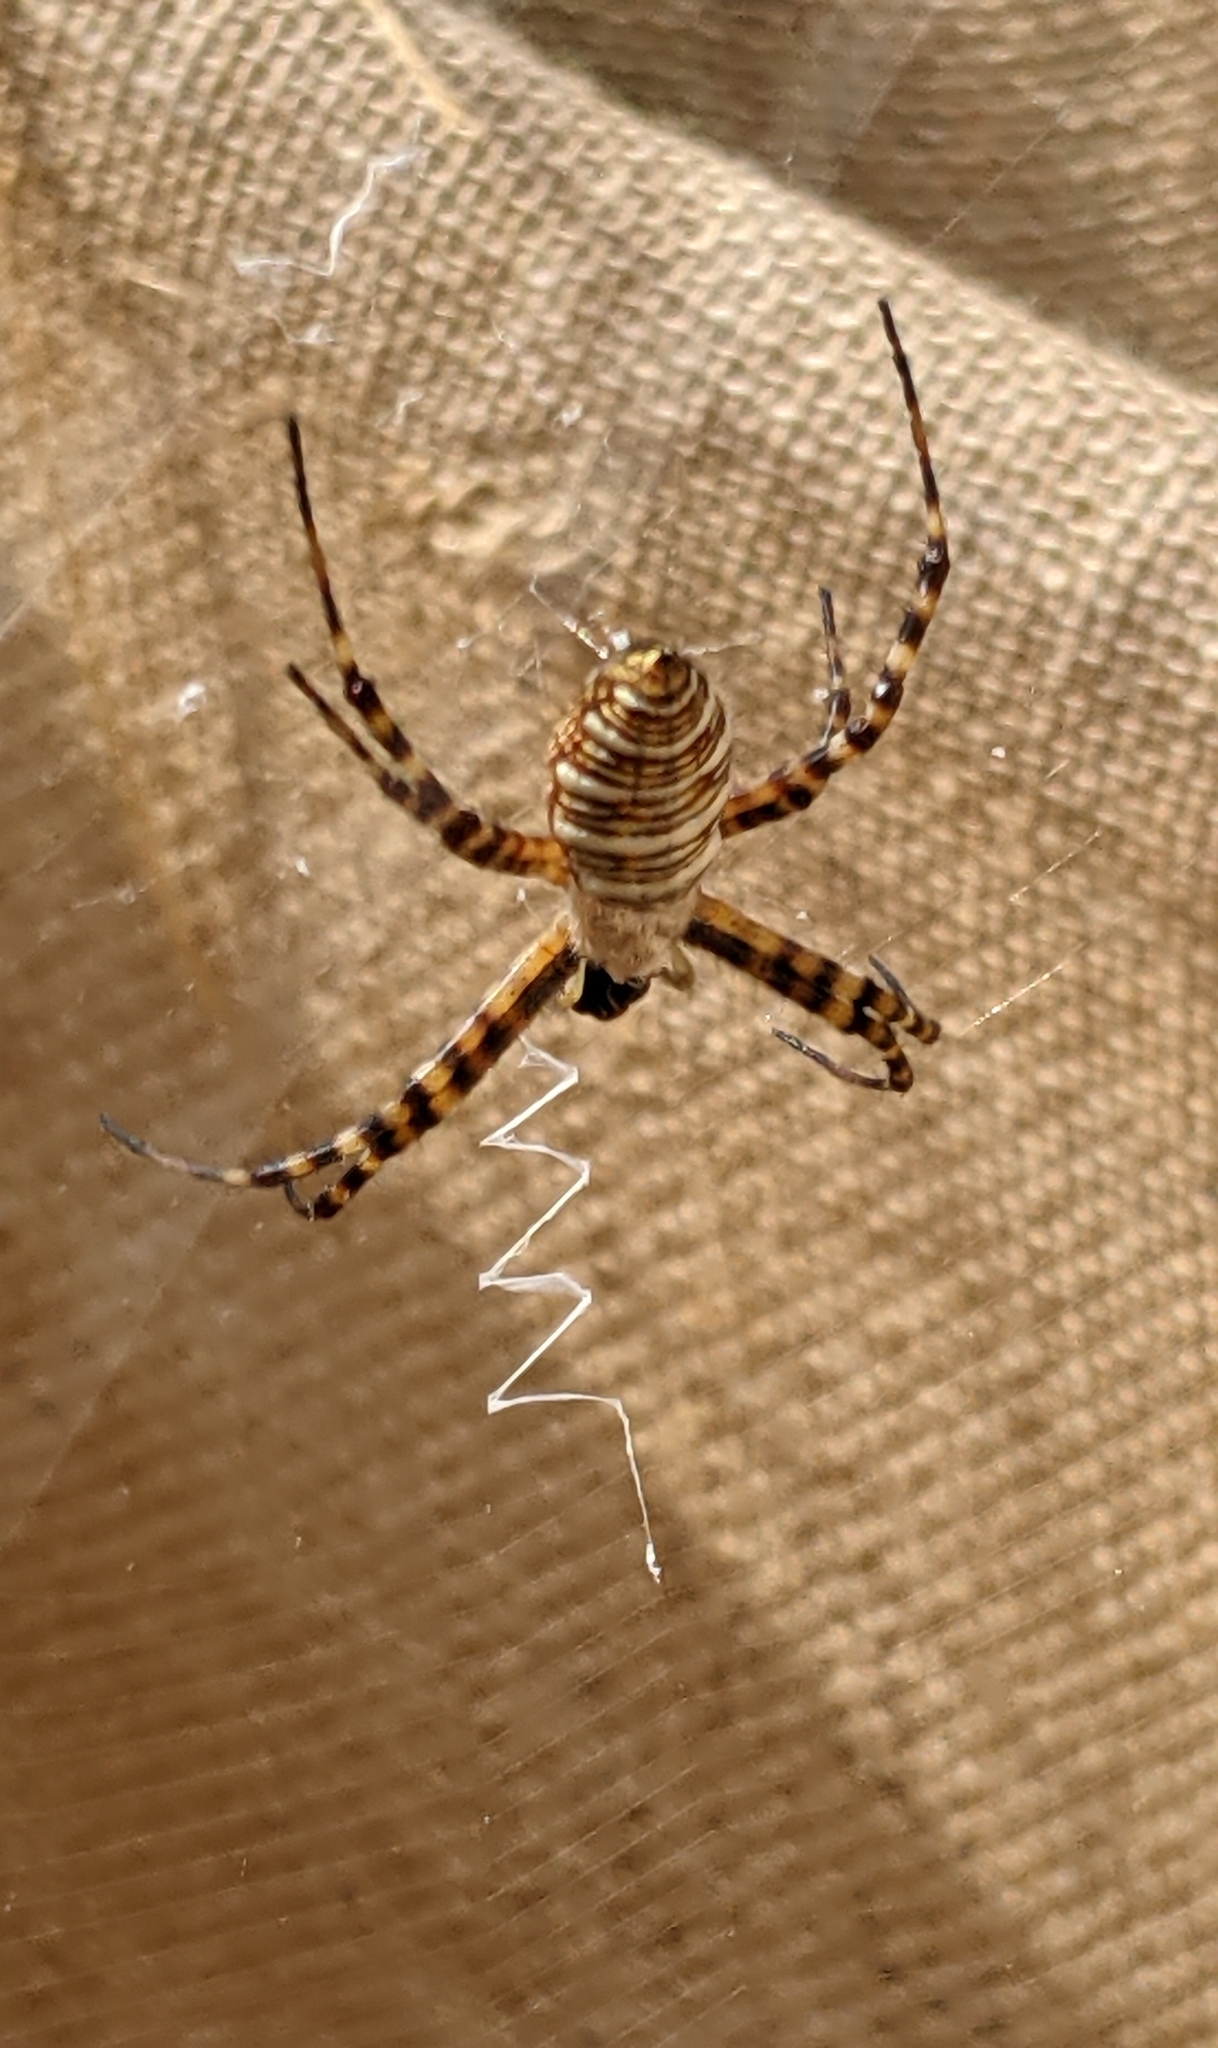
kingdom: Animalia
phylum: Arthropoda
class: Arachnida
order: Araneae
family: Araneidae
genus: Argiope
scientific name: Argiope trifasciata
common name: Banded garden spider
